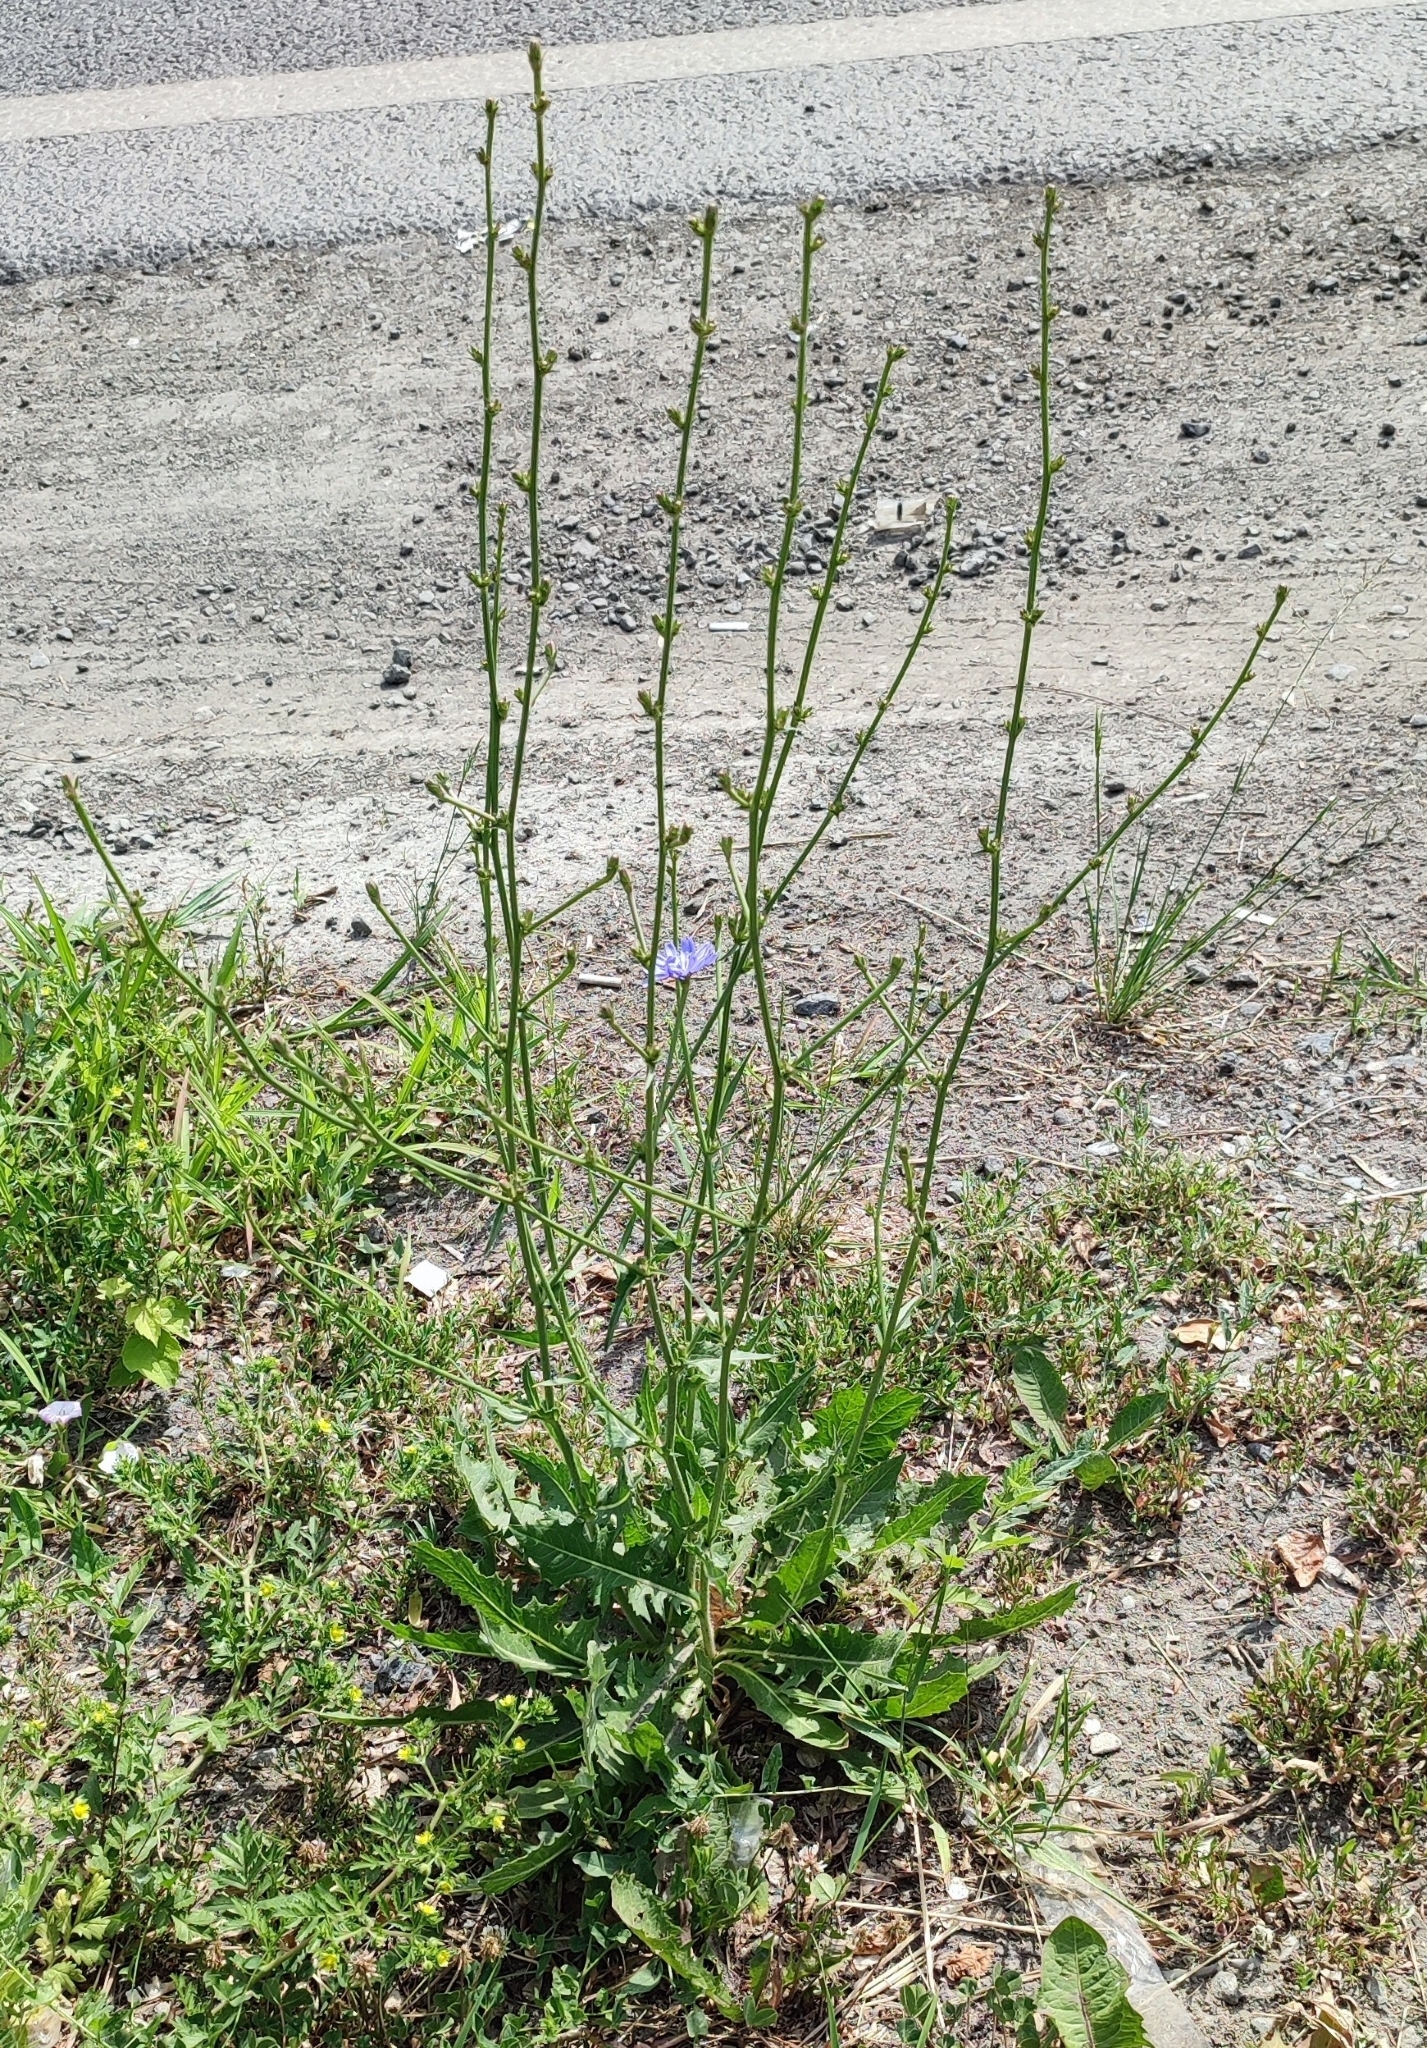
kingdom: Plantae
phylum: Tracheophyta
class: Magnoliopsida
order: Asterales
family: Asteraceae
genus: Cichorium
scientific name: Cichorium intybus
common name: Chicory
